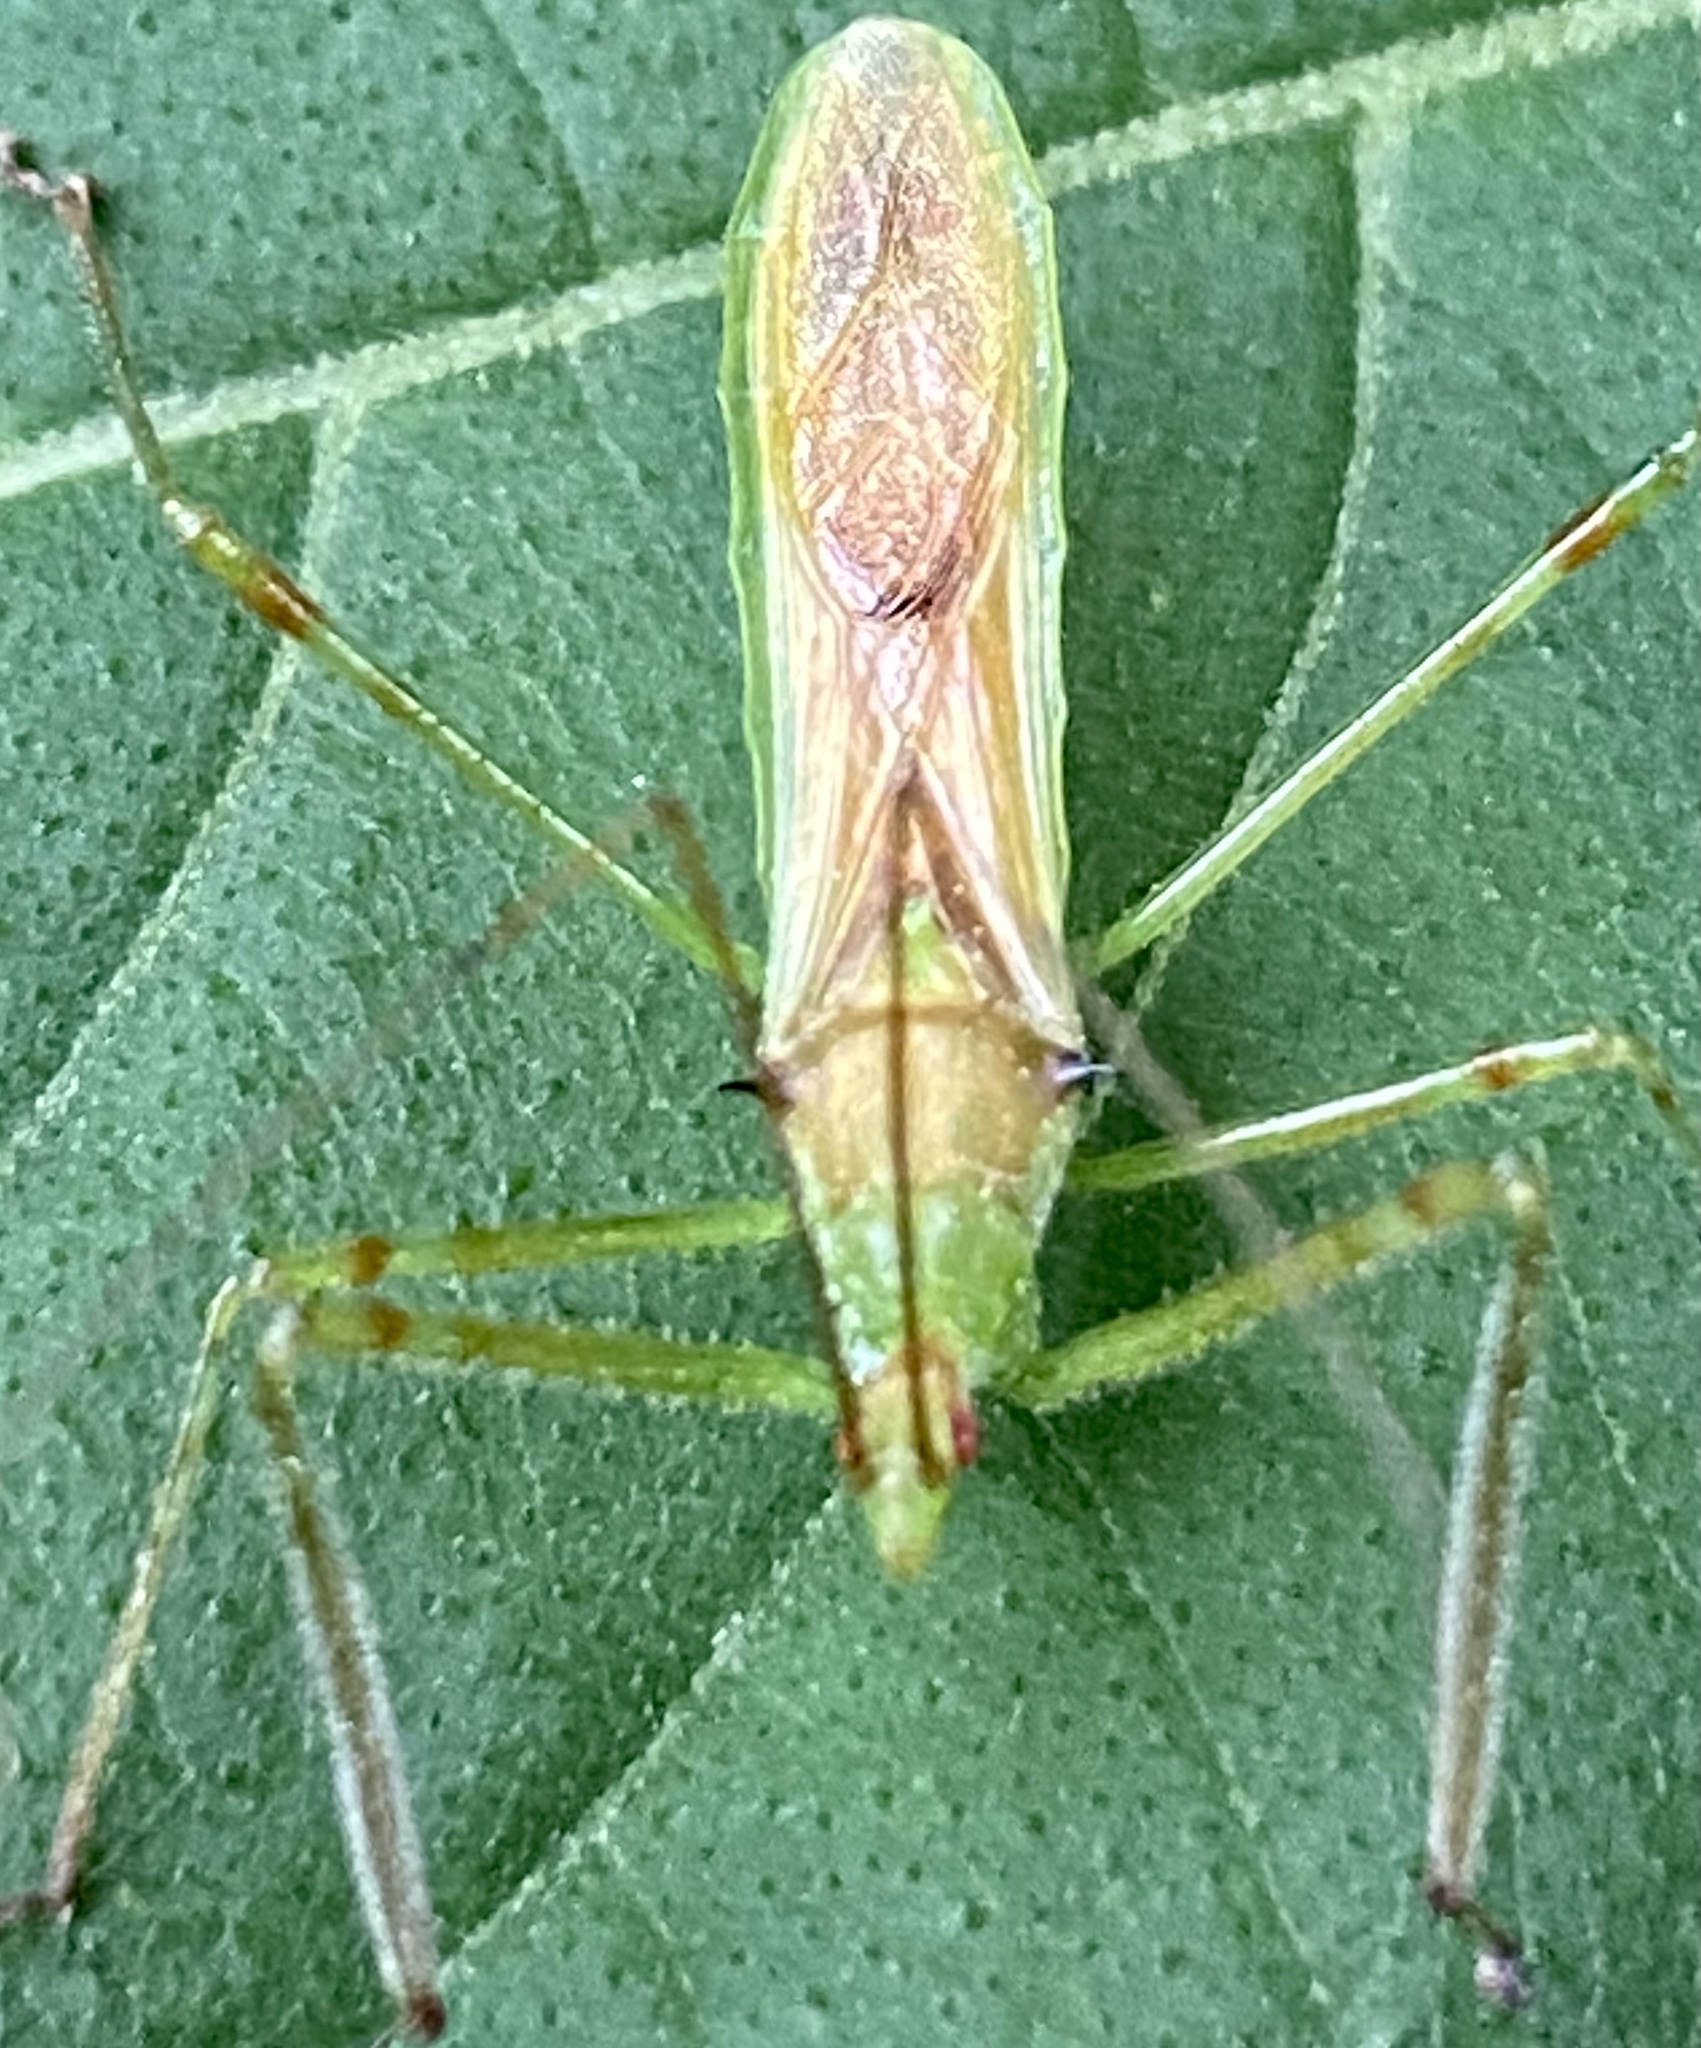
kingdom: Animalia
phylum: Arthropoda
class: Insecta
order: Hemiptera
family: Reduviidae
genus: Zelus
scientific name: Zelus luridus
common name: Pale green assassin bug
